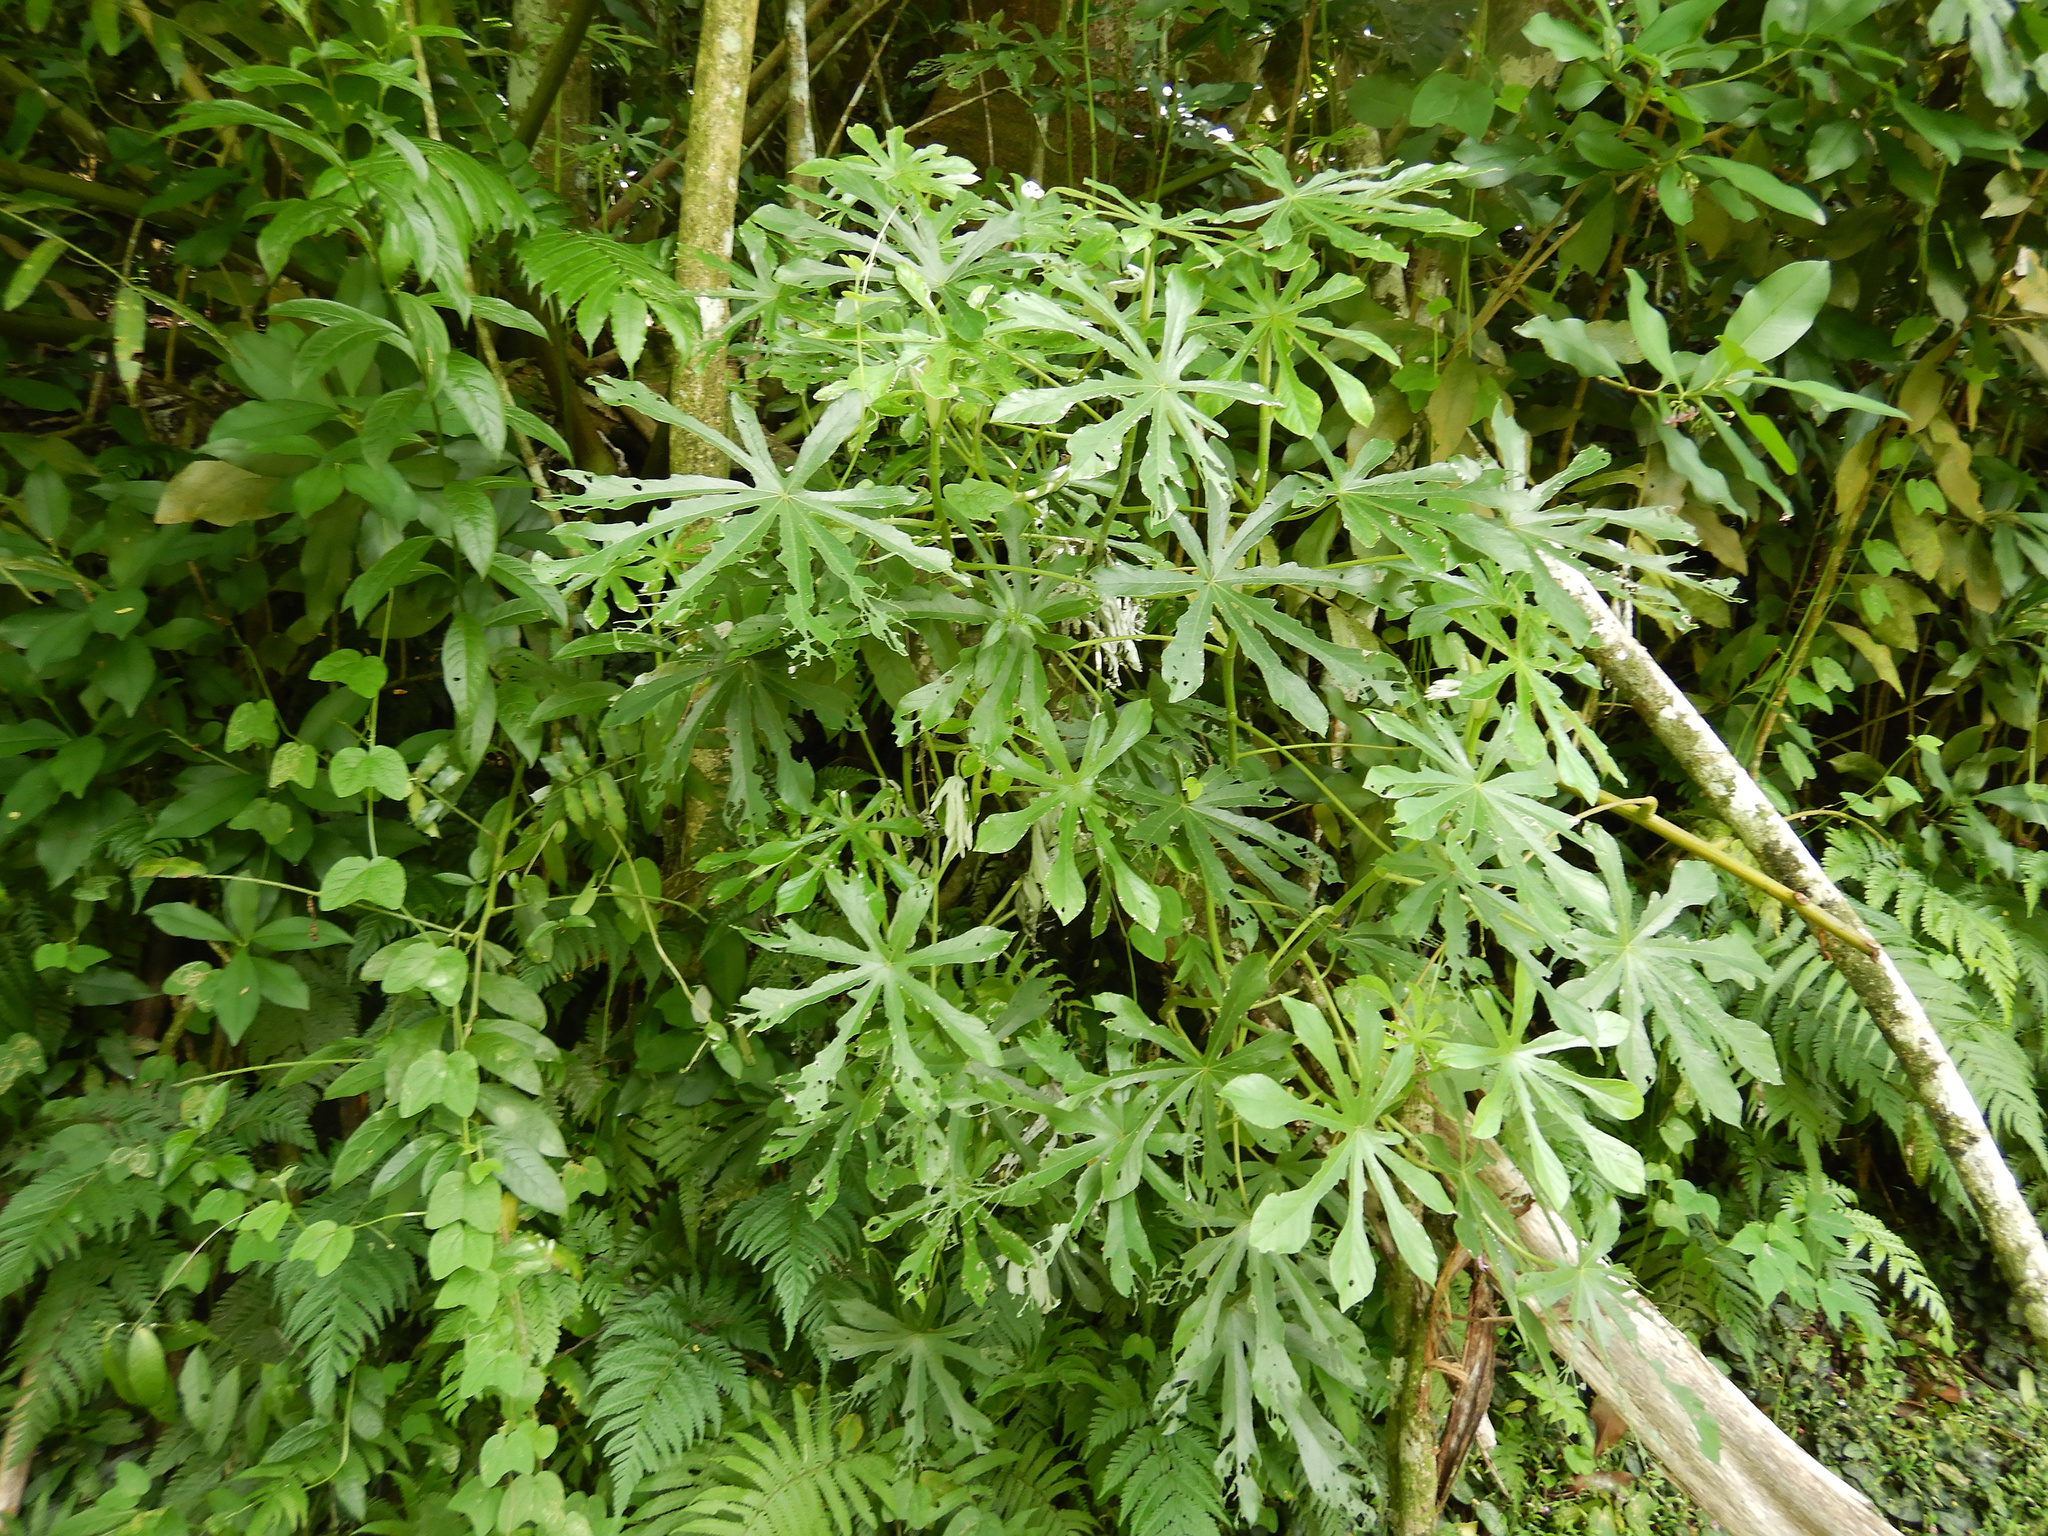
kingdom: Plantae
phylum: Tracheophyta
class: Magnoliopsida
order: Rosales
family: Urticaceae
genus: Cecropia
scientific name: Cecropia pachystachya
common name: Ambay pumpwood
